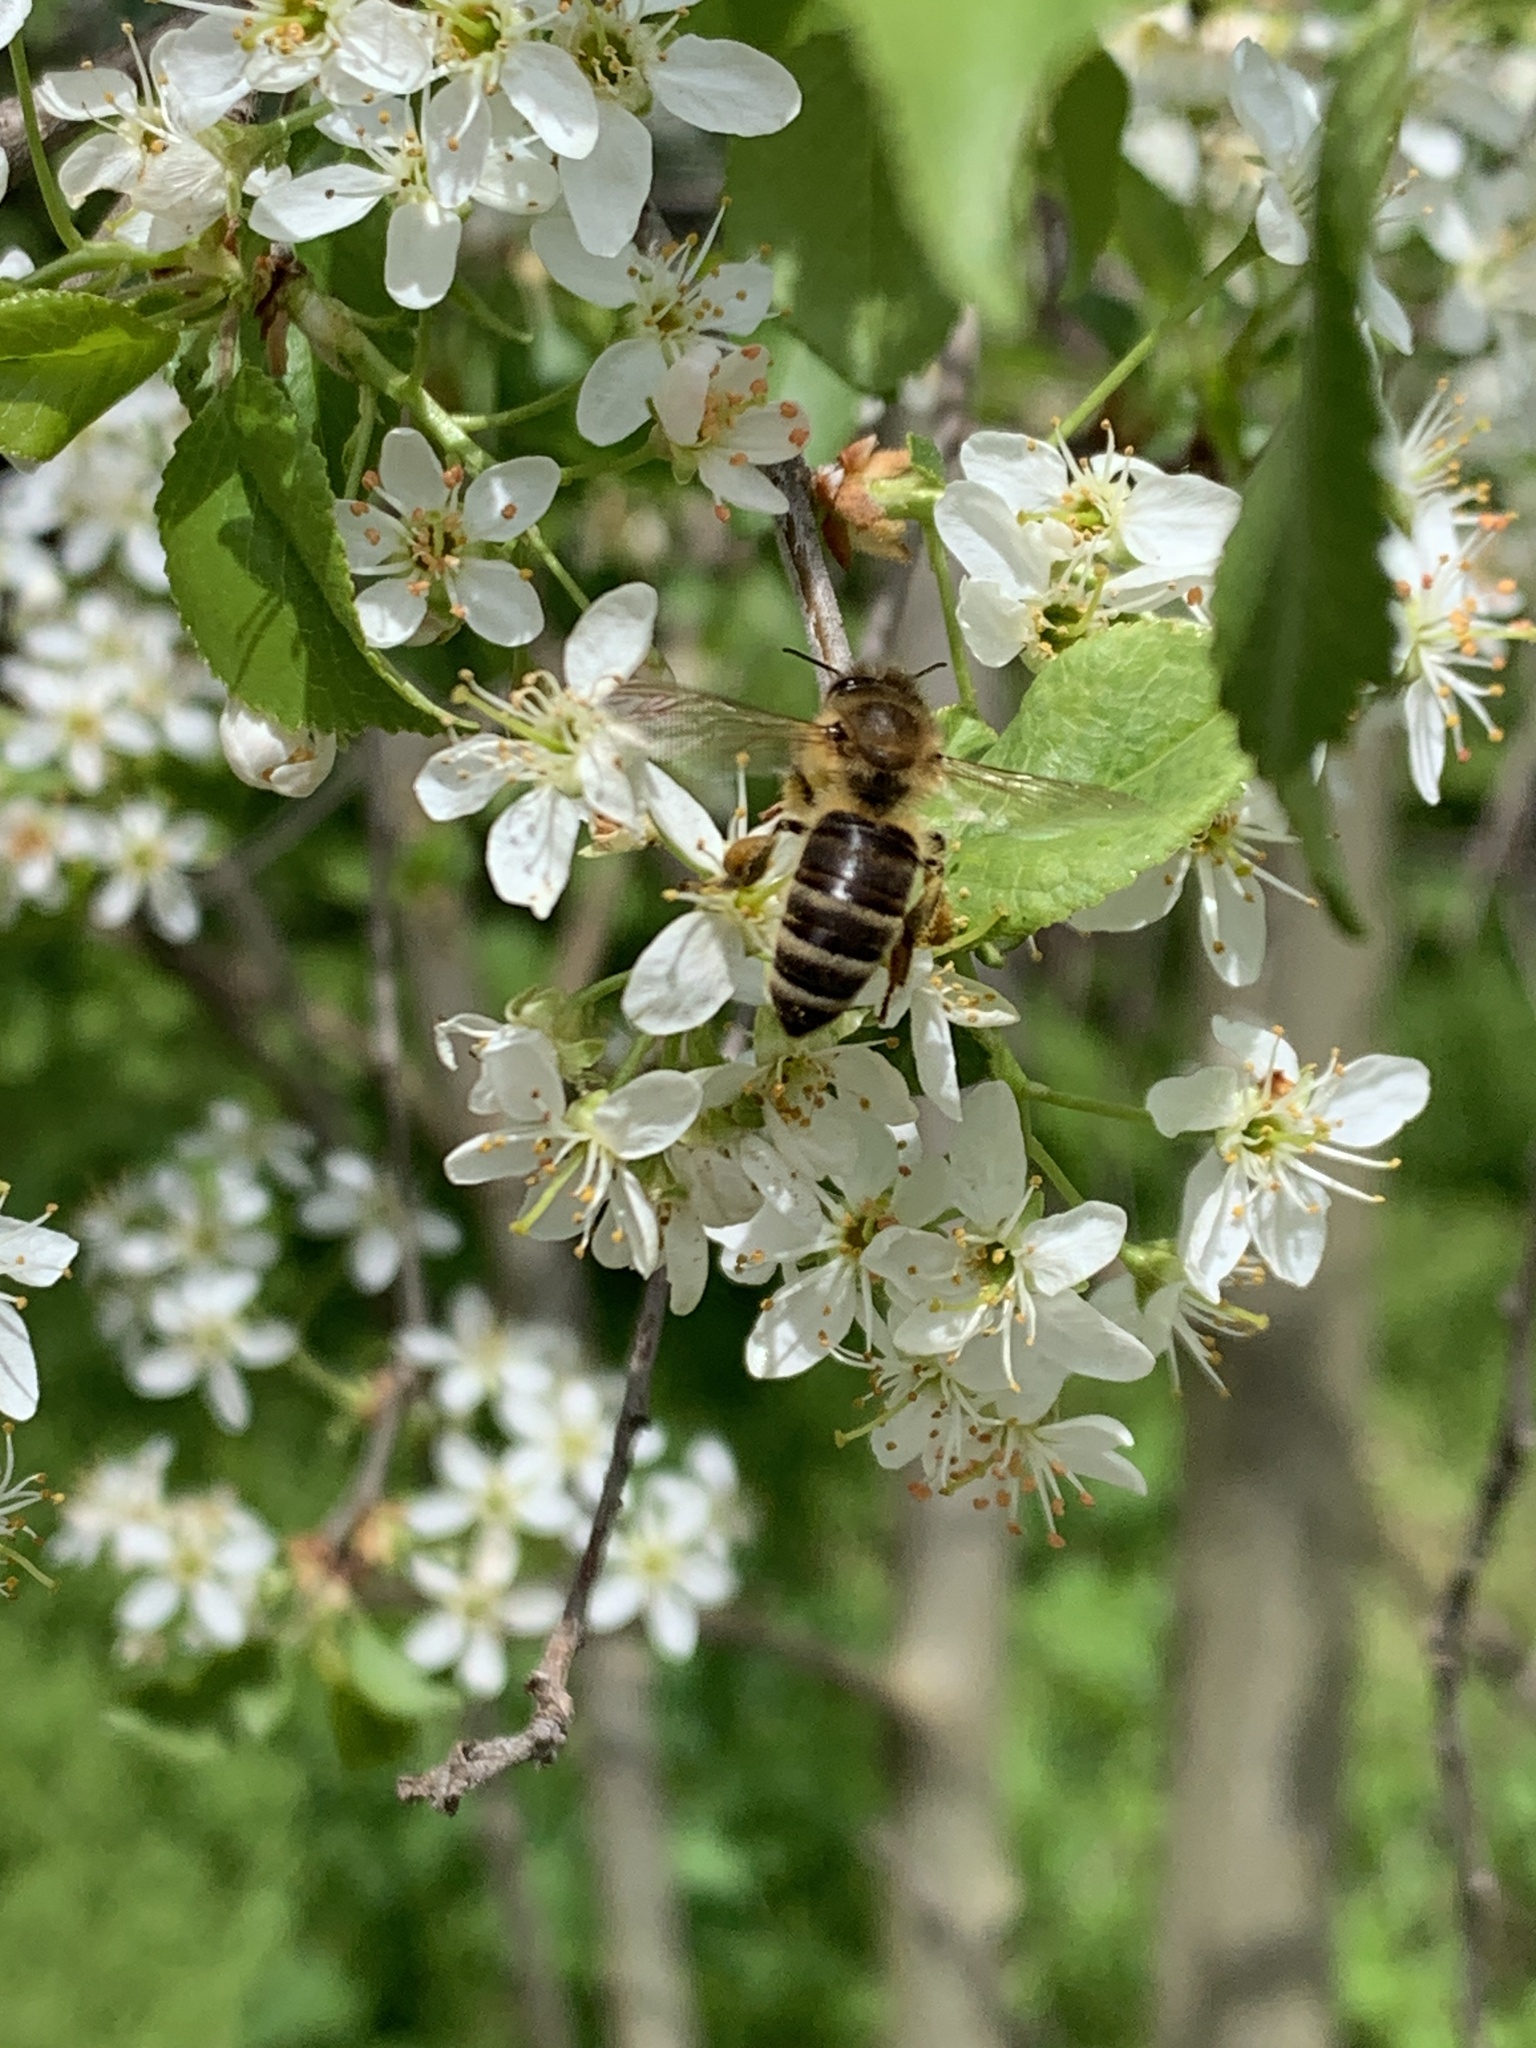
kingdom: Animalia
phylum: Arthropoda
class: Insecta
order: Hymenoptera
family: Apidae
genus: Apis
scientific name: Apis mellifera
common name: Honey bee
